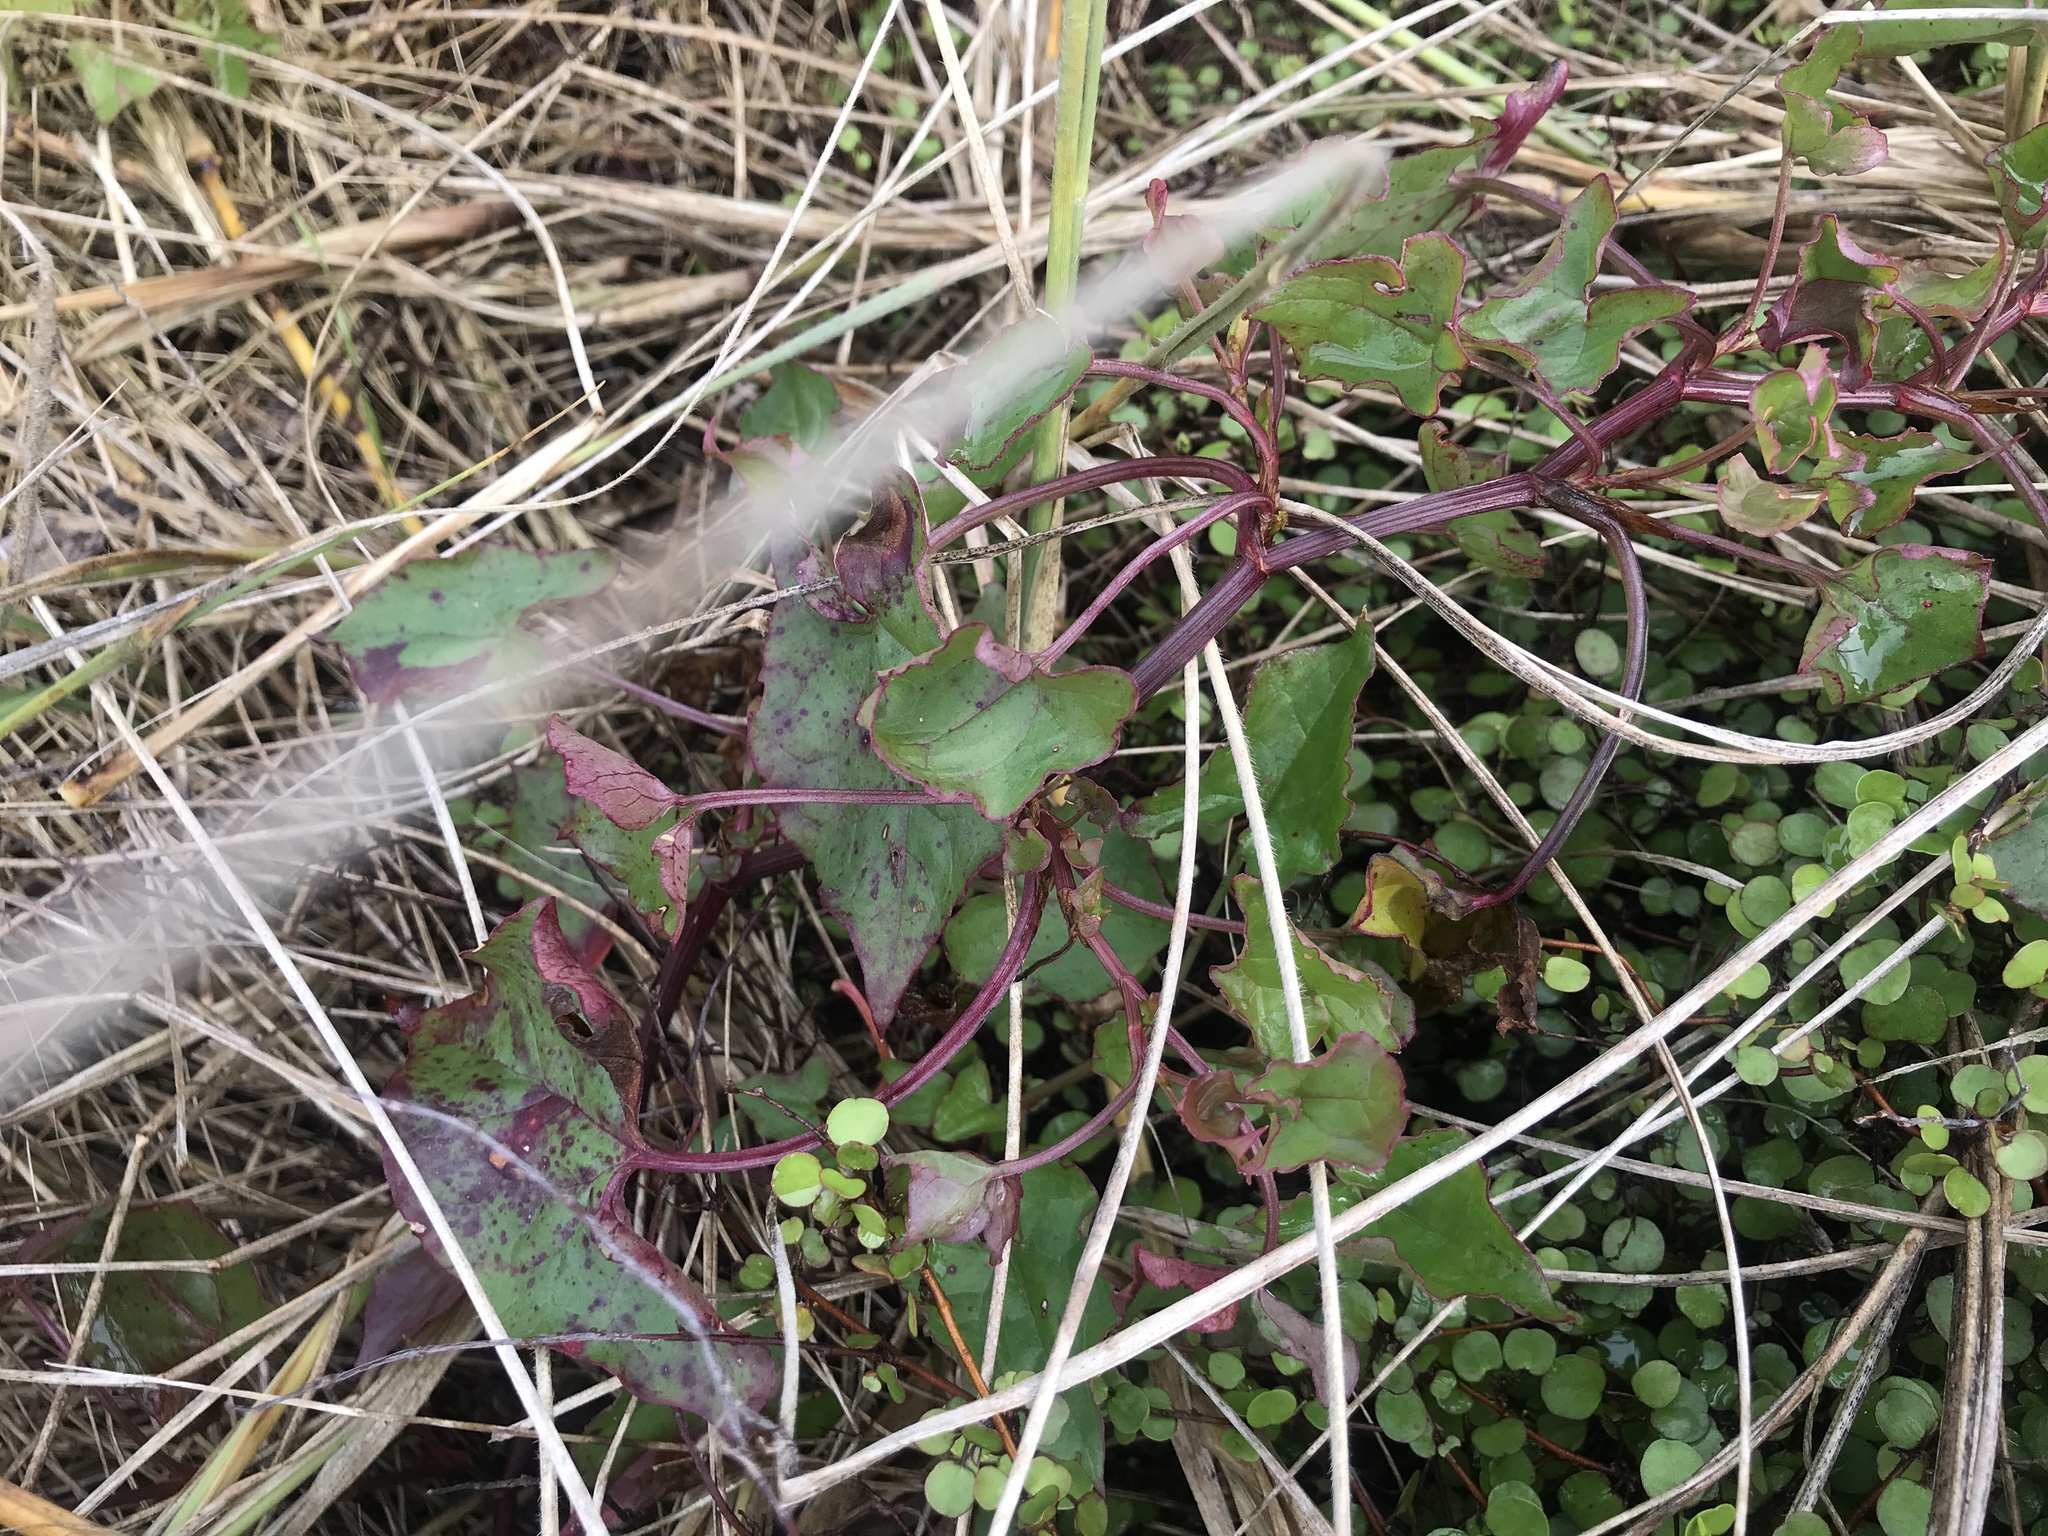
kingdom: Plantae
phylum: Tracheophyta
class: Magnoliopsida
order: Caryophyllales
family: Polygonaceae
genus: Rumex
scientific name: Rumex sagittatus
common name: Climbing dock
